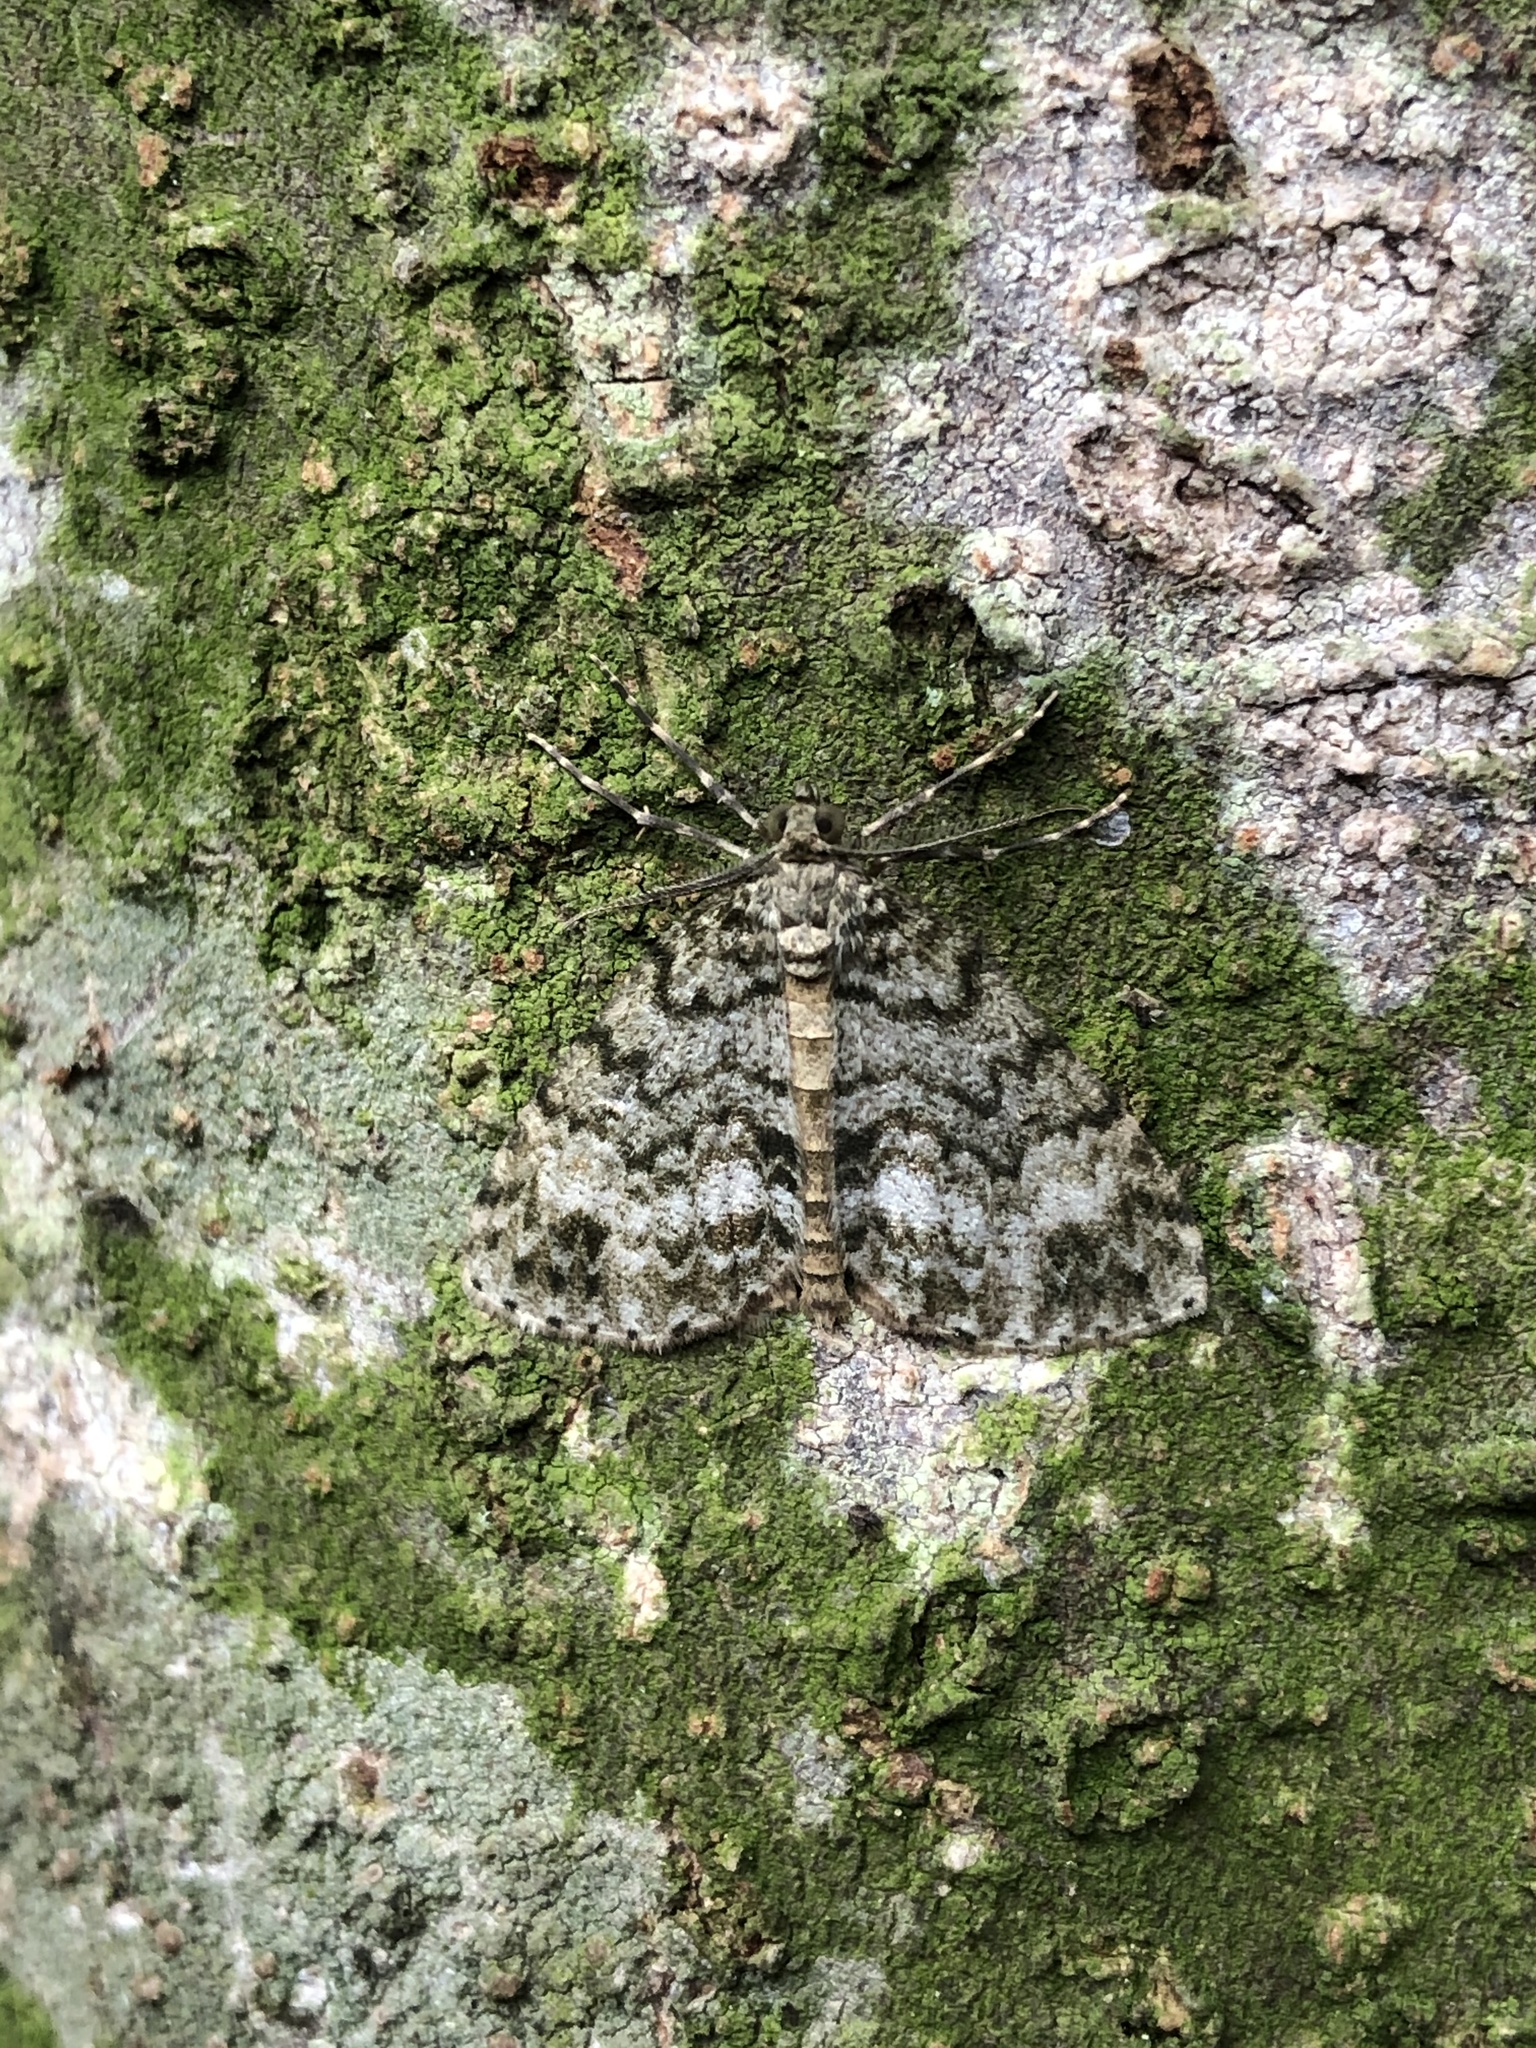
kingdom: Animalia
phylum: Arthropoda
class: Insecta
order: Lepidoptera
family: Geometridae
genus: Pseudocoremia
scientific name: Pseudocoremia indistincta
